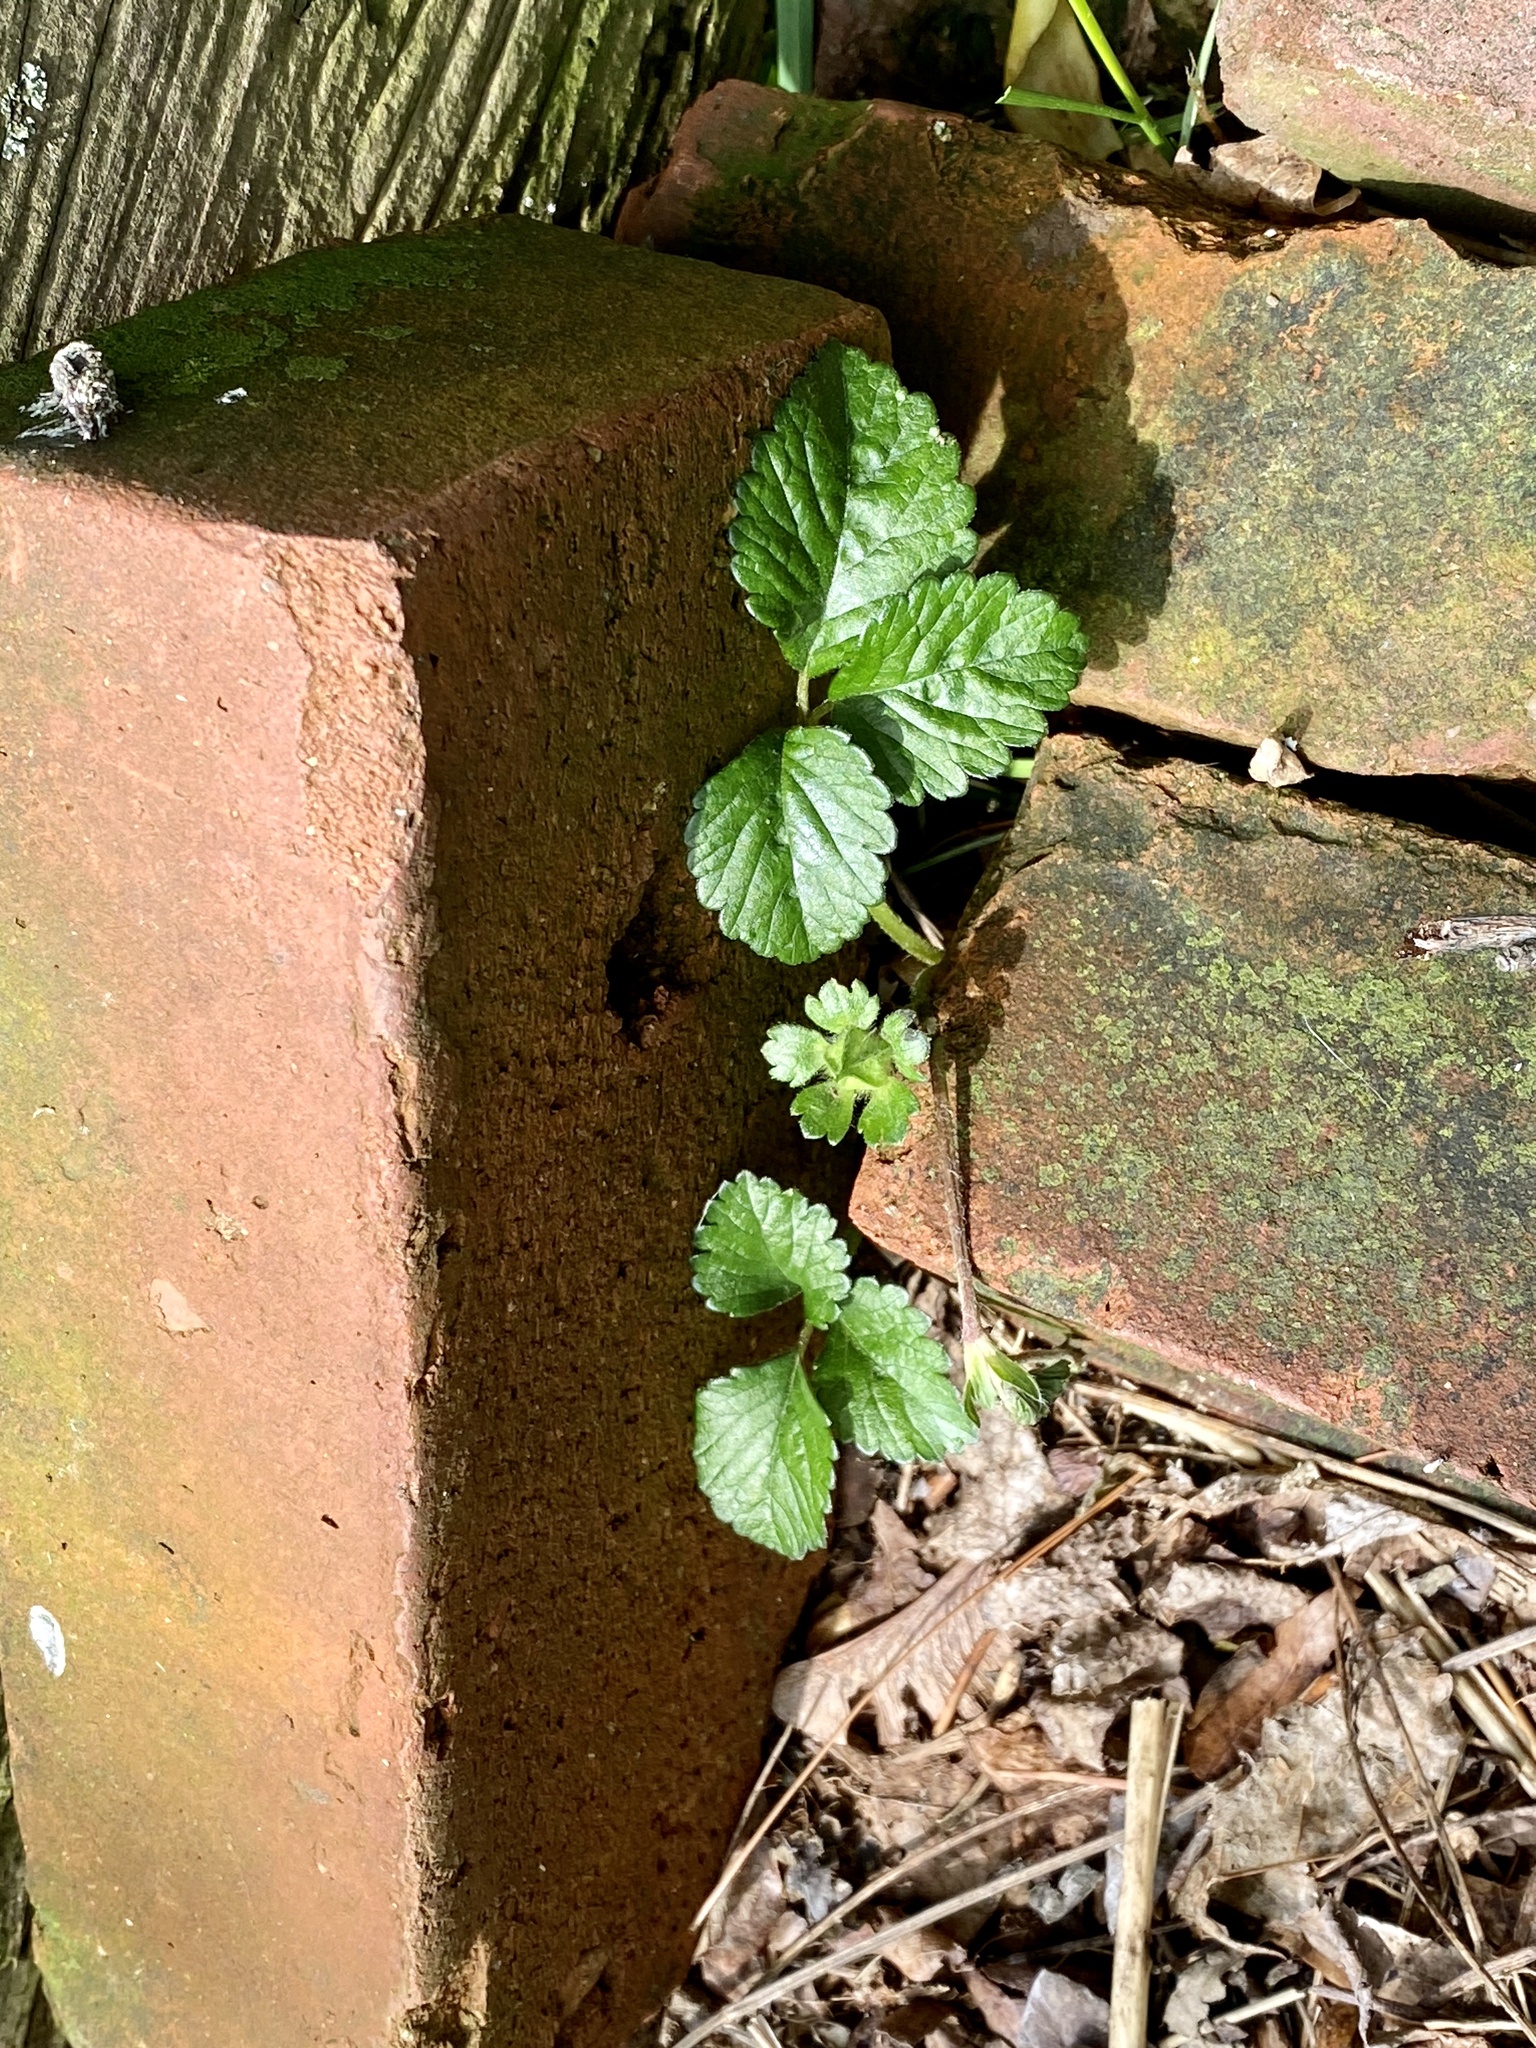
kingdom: Plantae
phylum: Tracheophyta
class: Magnoliopsida
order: Rosales
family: Rosaceae
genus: Potentilla
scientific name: Potentilla indica
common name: Yellow-flowered strawberry
